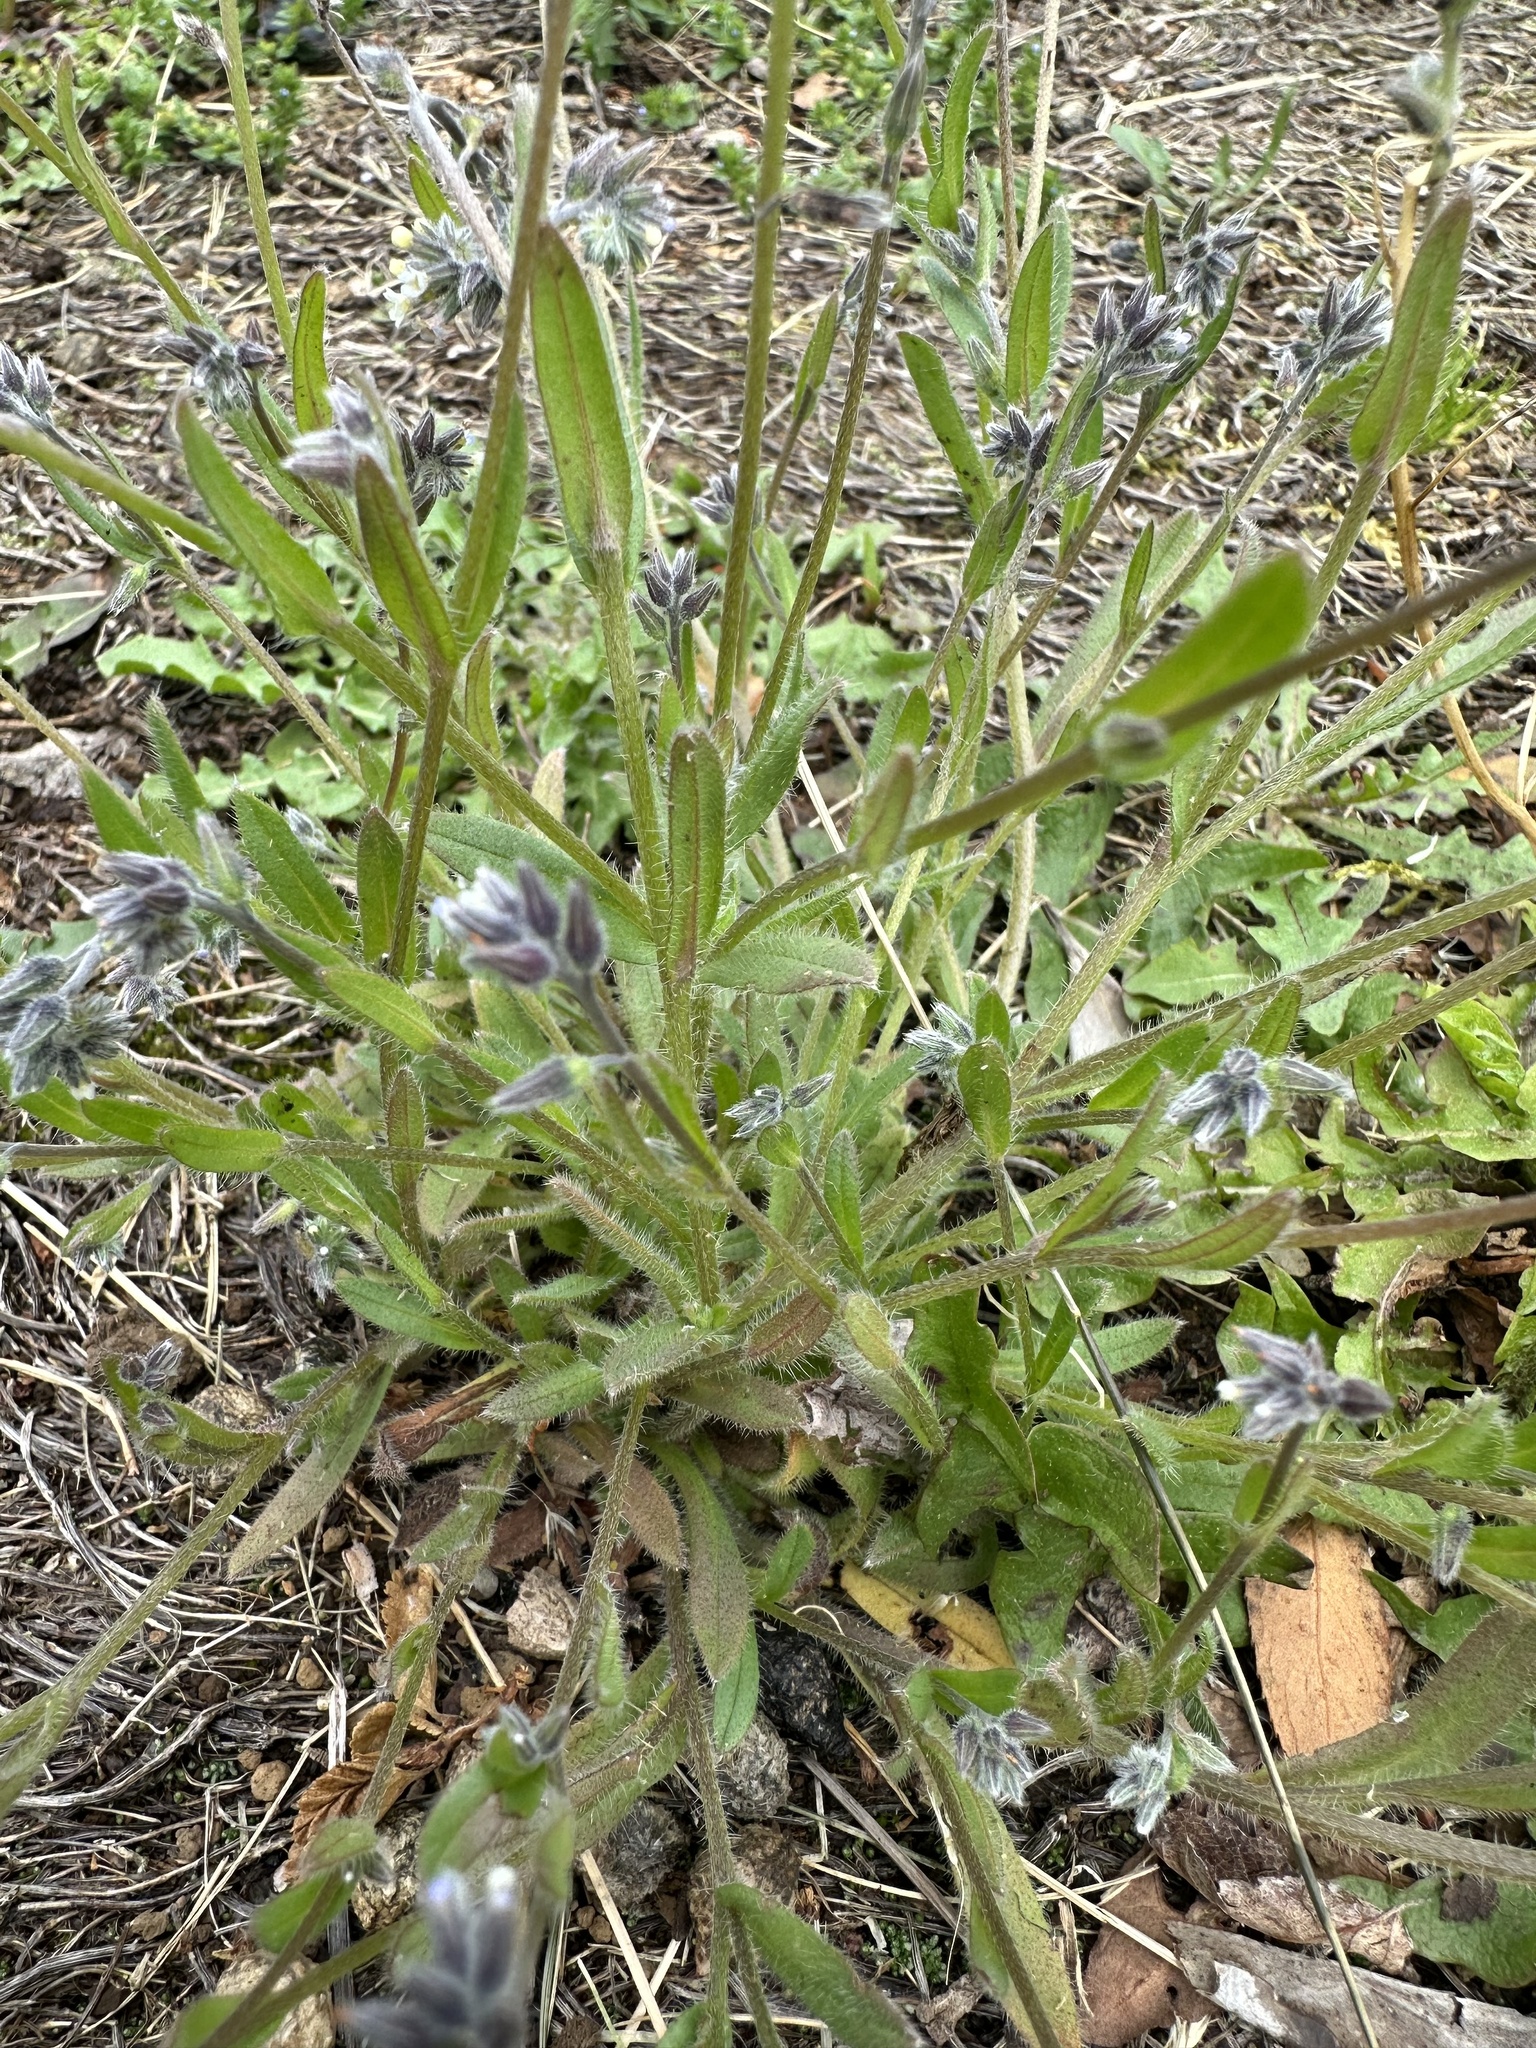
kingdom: Plantae
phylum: Tracheophyta
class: Magnoliopsida
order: Boraginales
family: Boraginaceae
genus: Myosotis
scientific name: Myosotis discolor
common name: Changing forget-me-not
